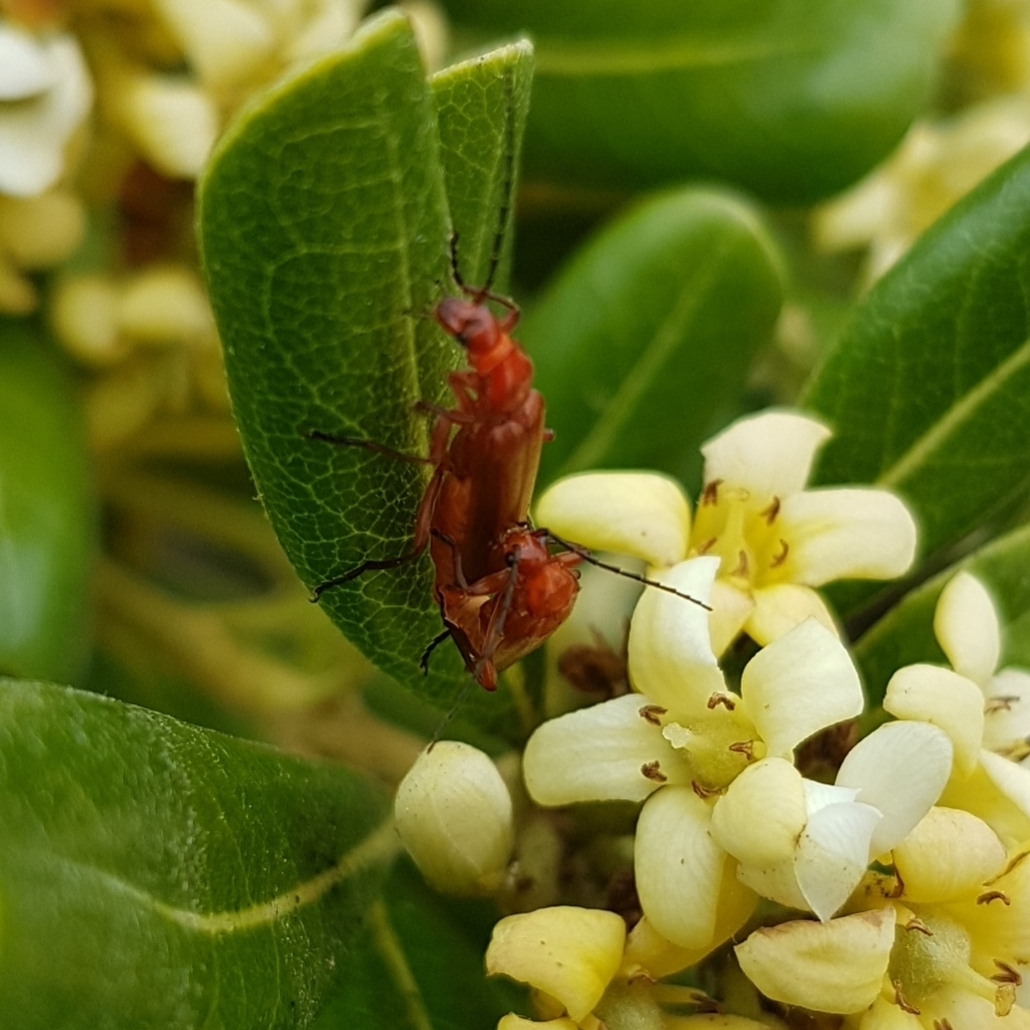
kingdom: Animalia
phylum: Arthropoda
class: Insecta
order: Coleoptera
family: Cantharidae
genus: Rhagonycha
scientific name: Rhagonycha fulva
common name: Common red soldier beetle
